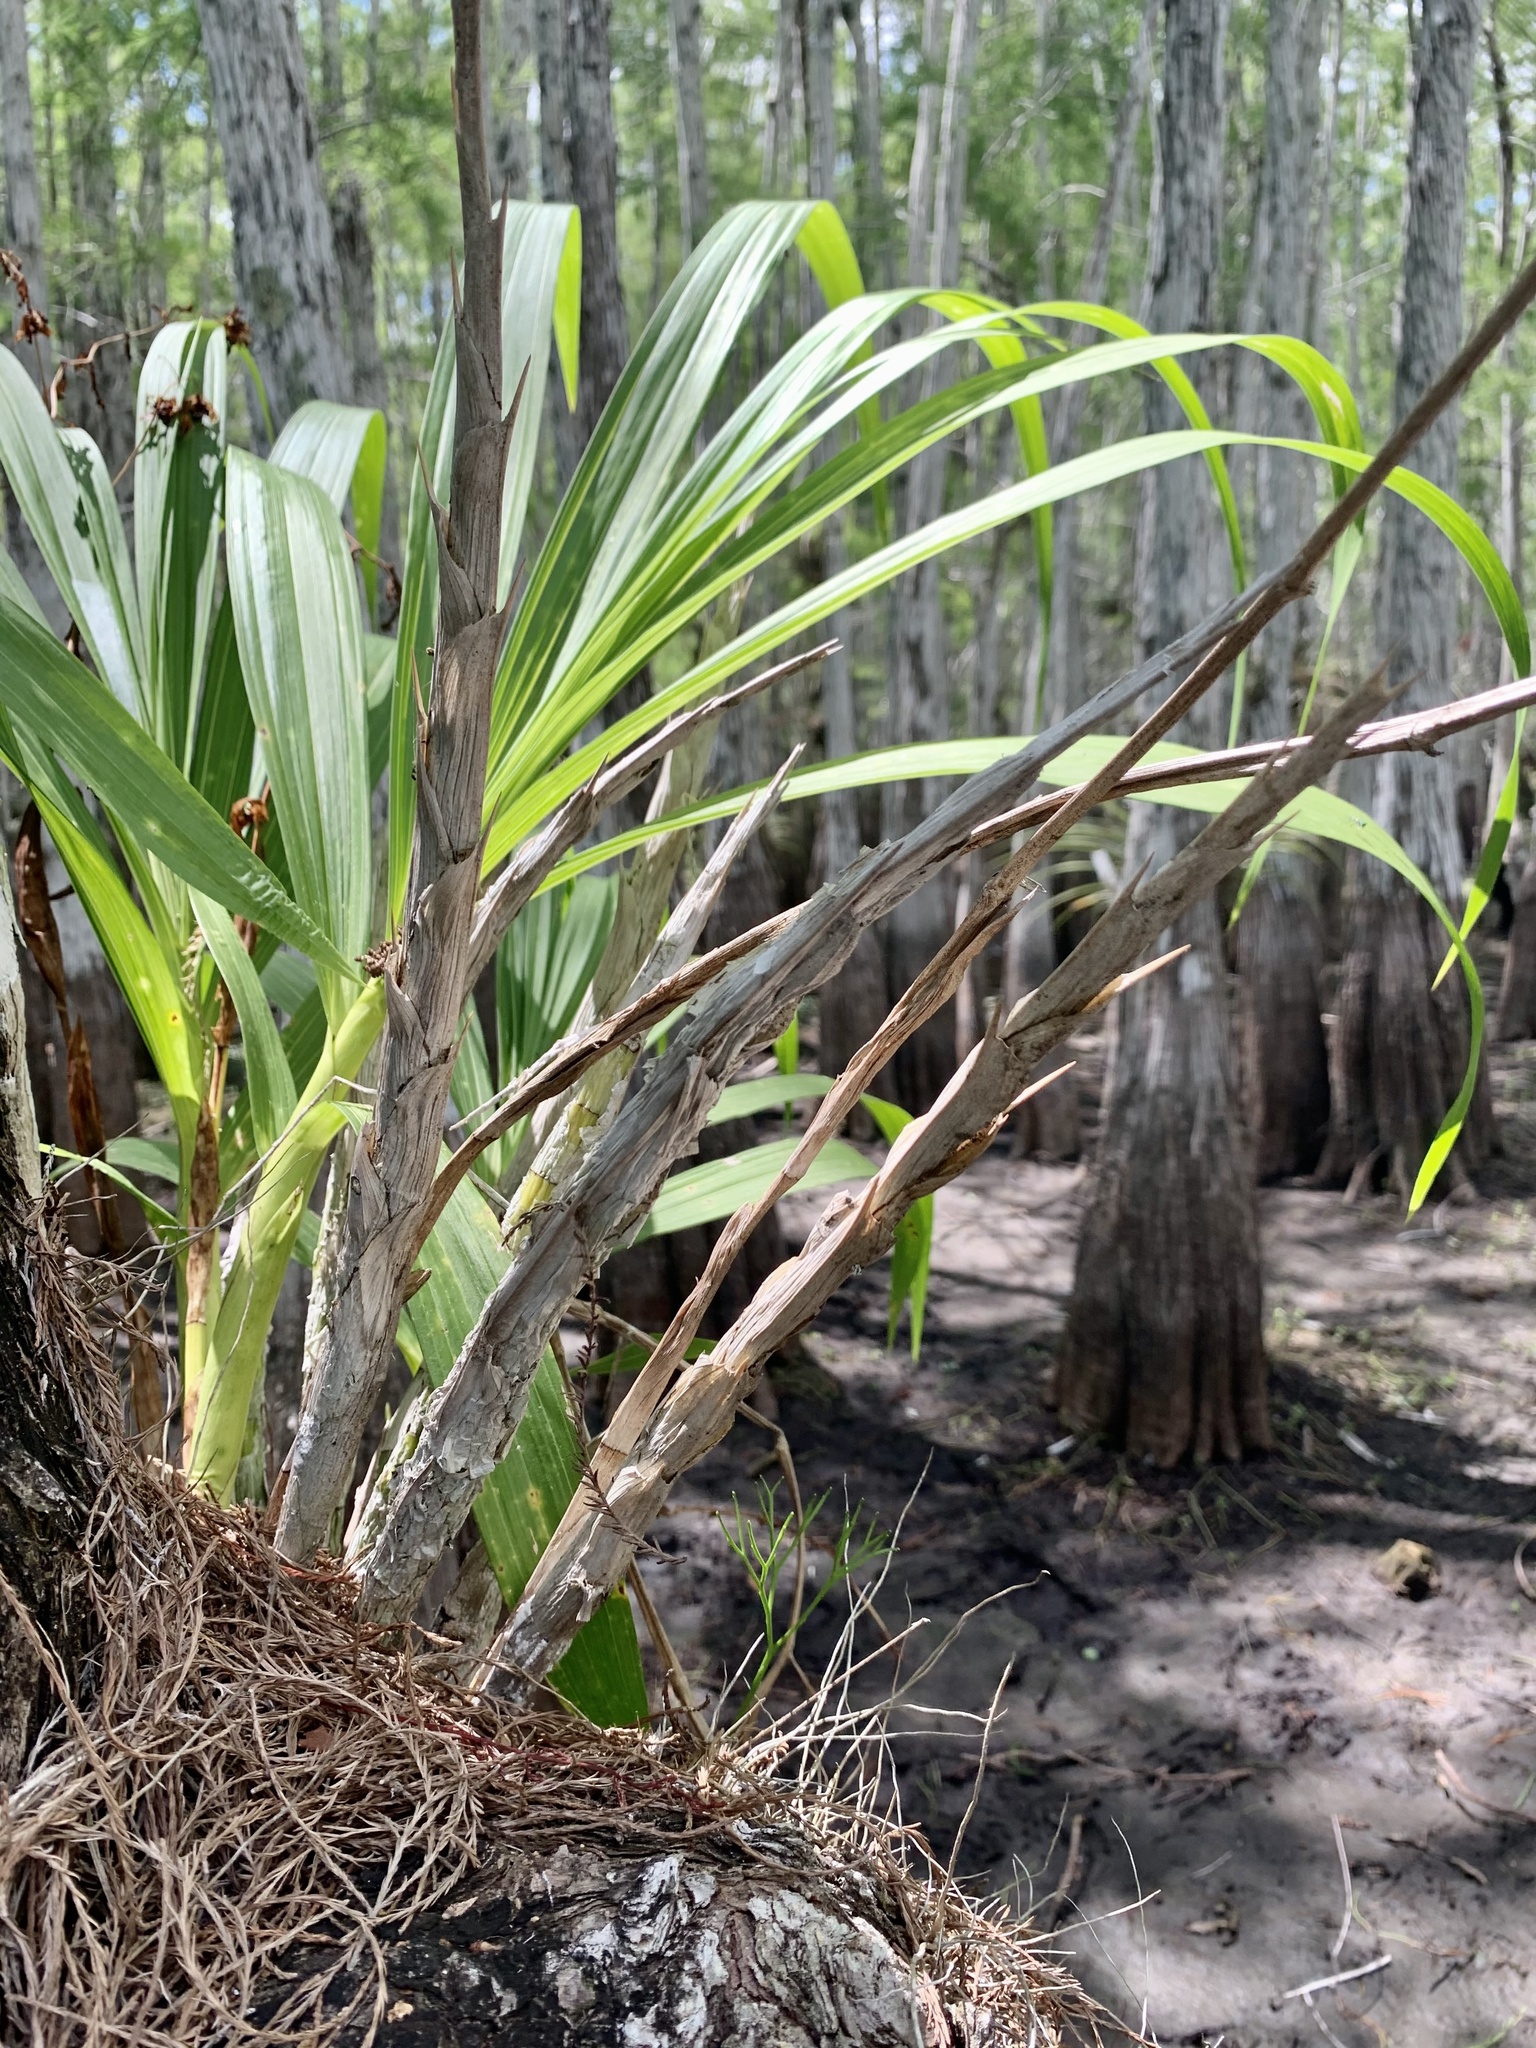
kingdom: Plantae
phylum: Tracheophyta
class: Liliopsida
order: Asparagales
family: Orchidaceae
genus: Cyrtopodium
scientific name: Cyrtopodium punctatum
